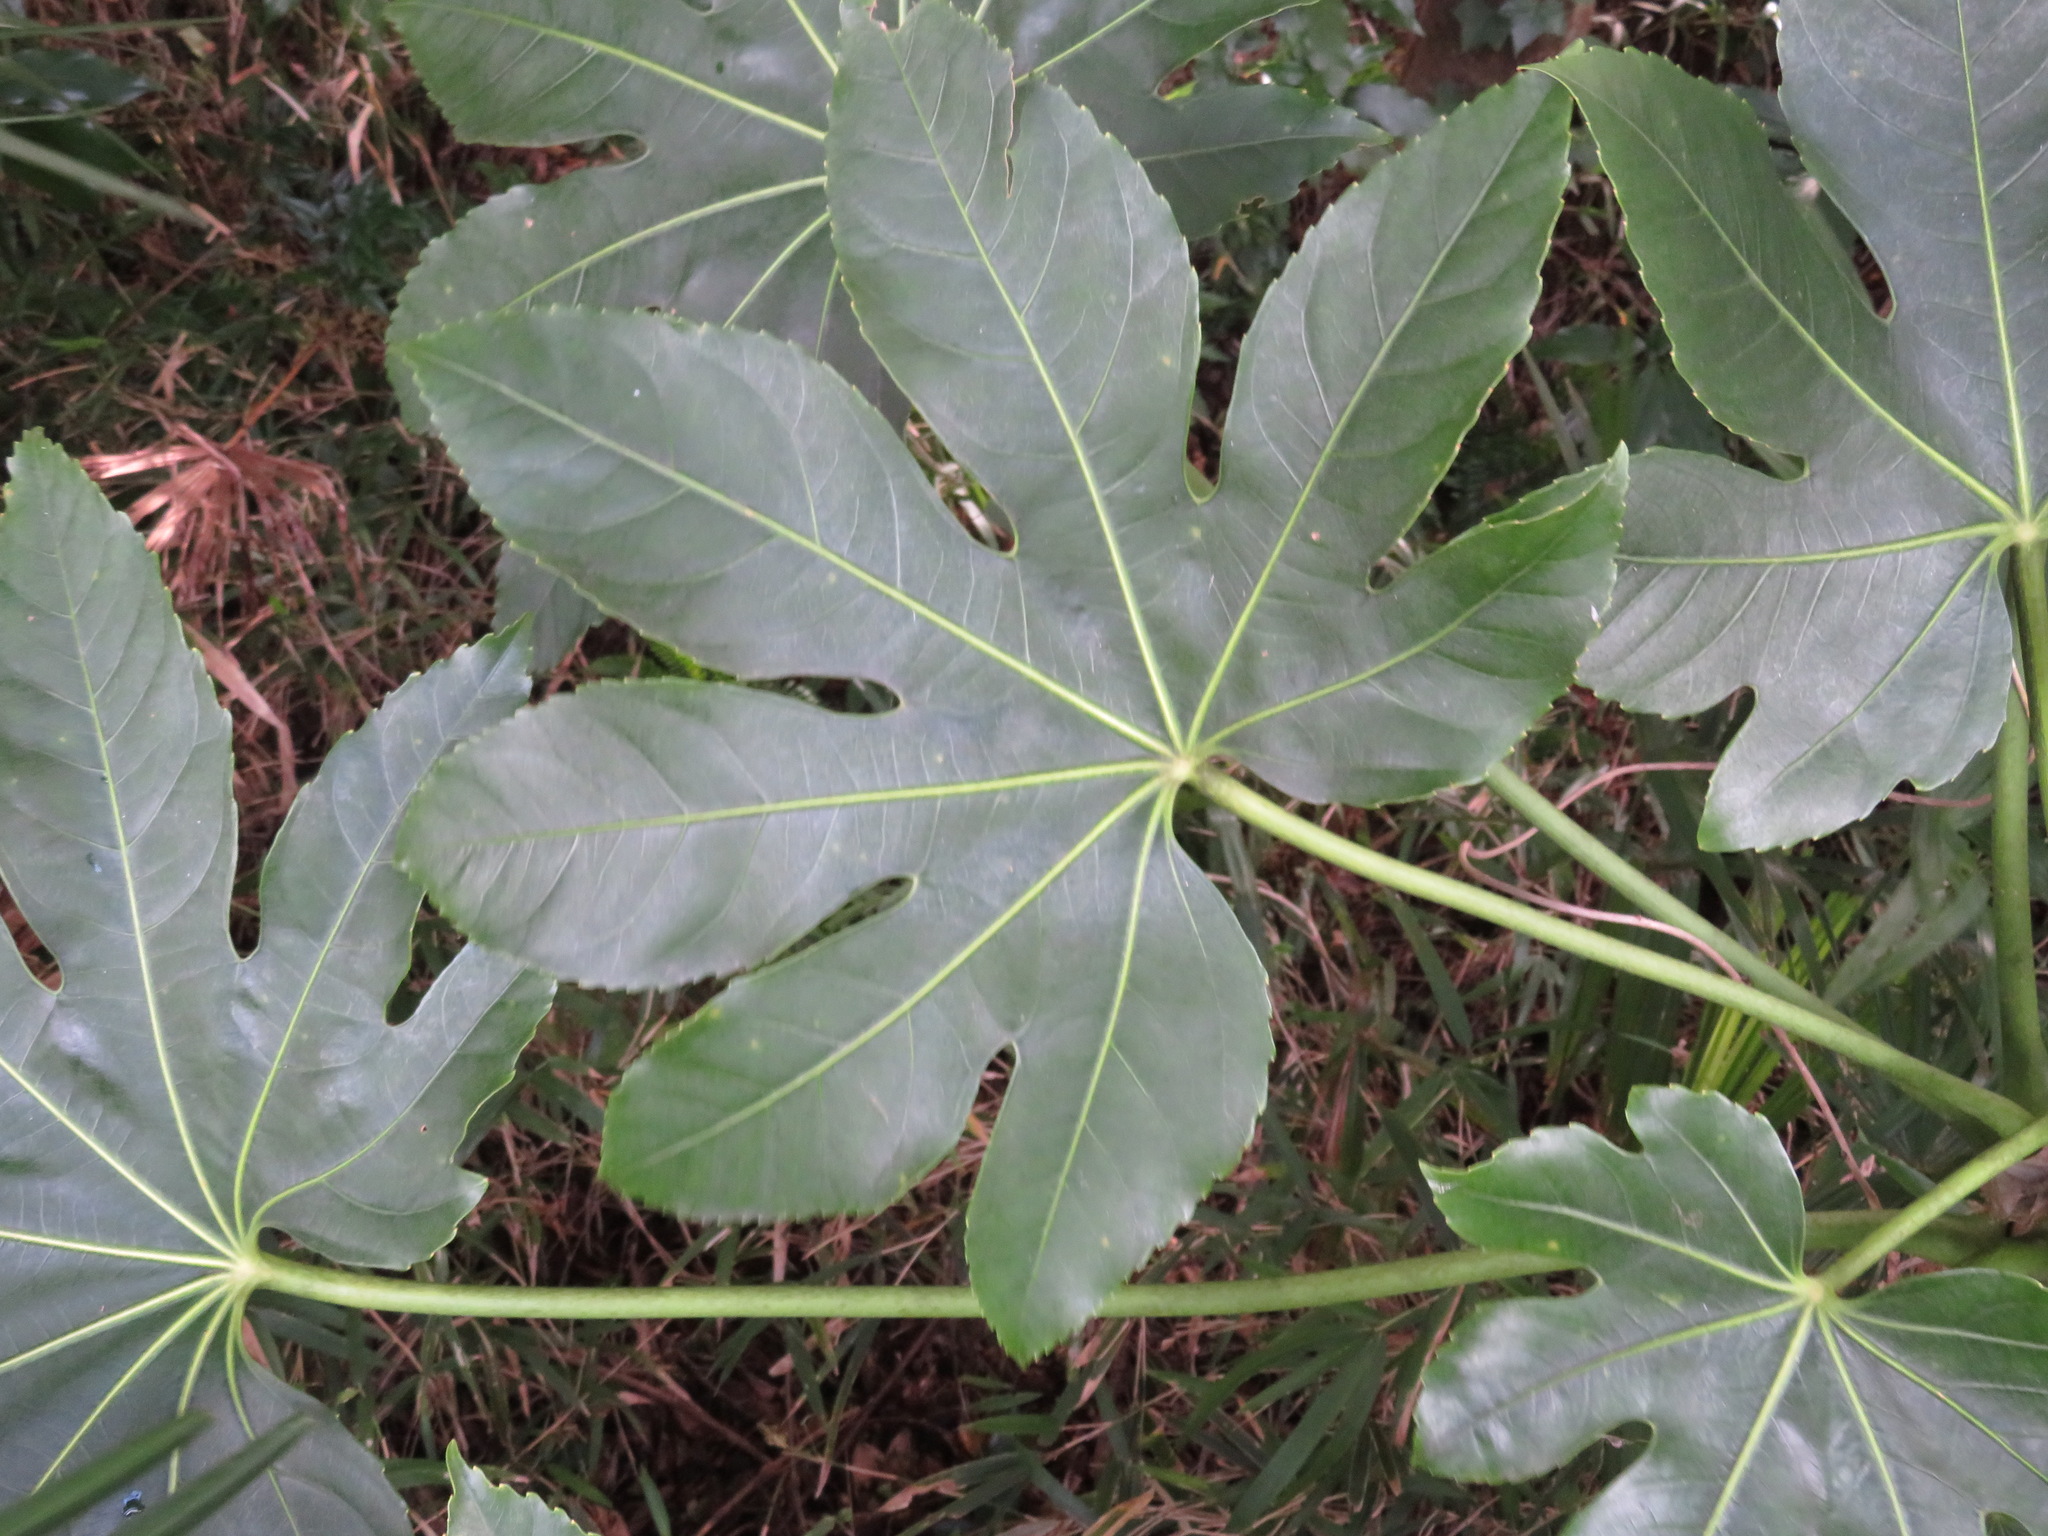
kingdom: Plantae
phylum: Tracheophyta
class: Magnoliopsida
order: Apiales
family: Araliaceae
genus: Fatsia
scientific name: Fatsia japonica
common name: Fatsia
